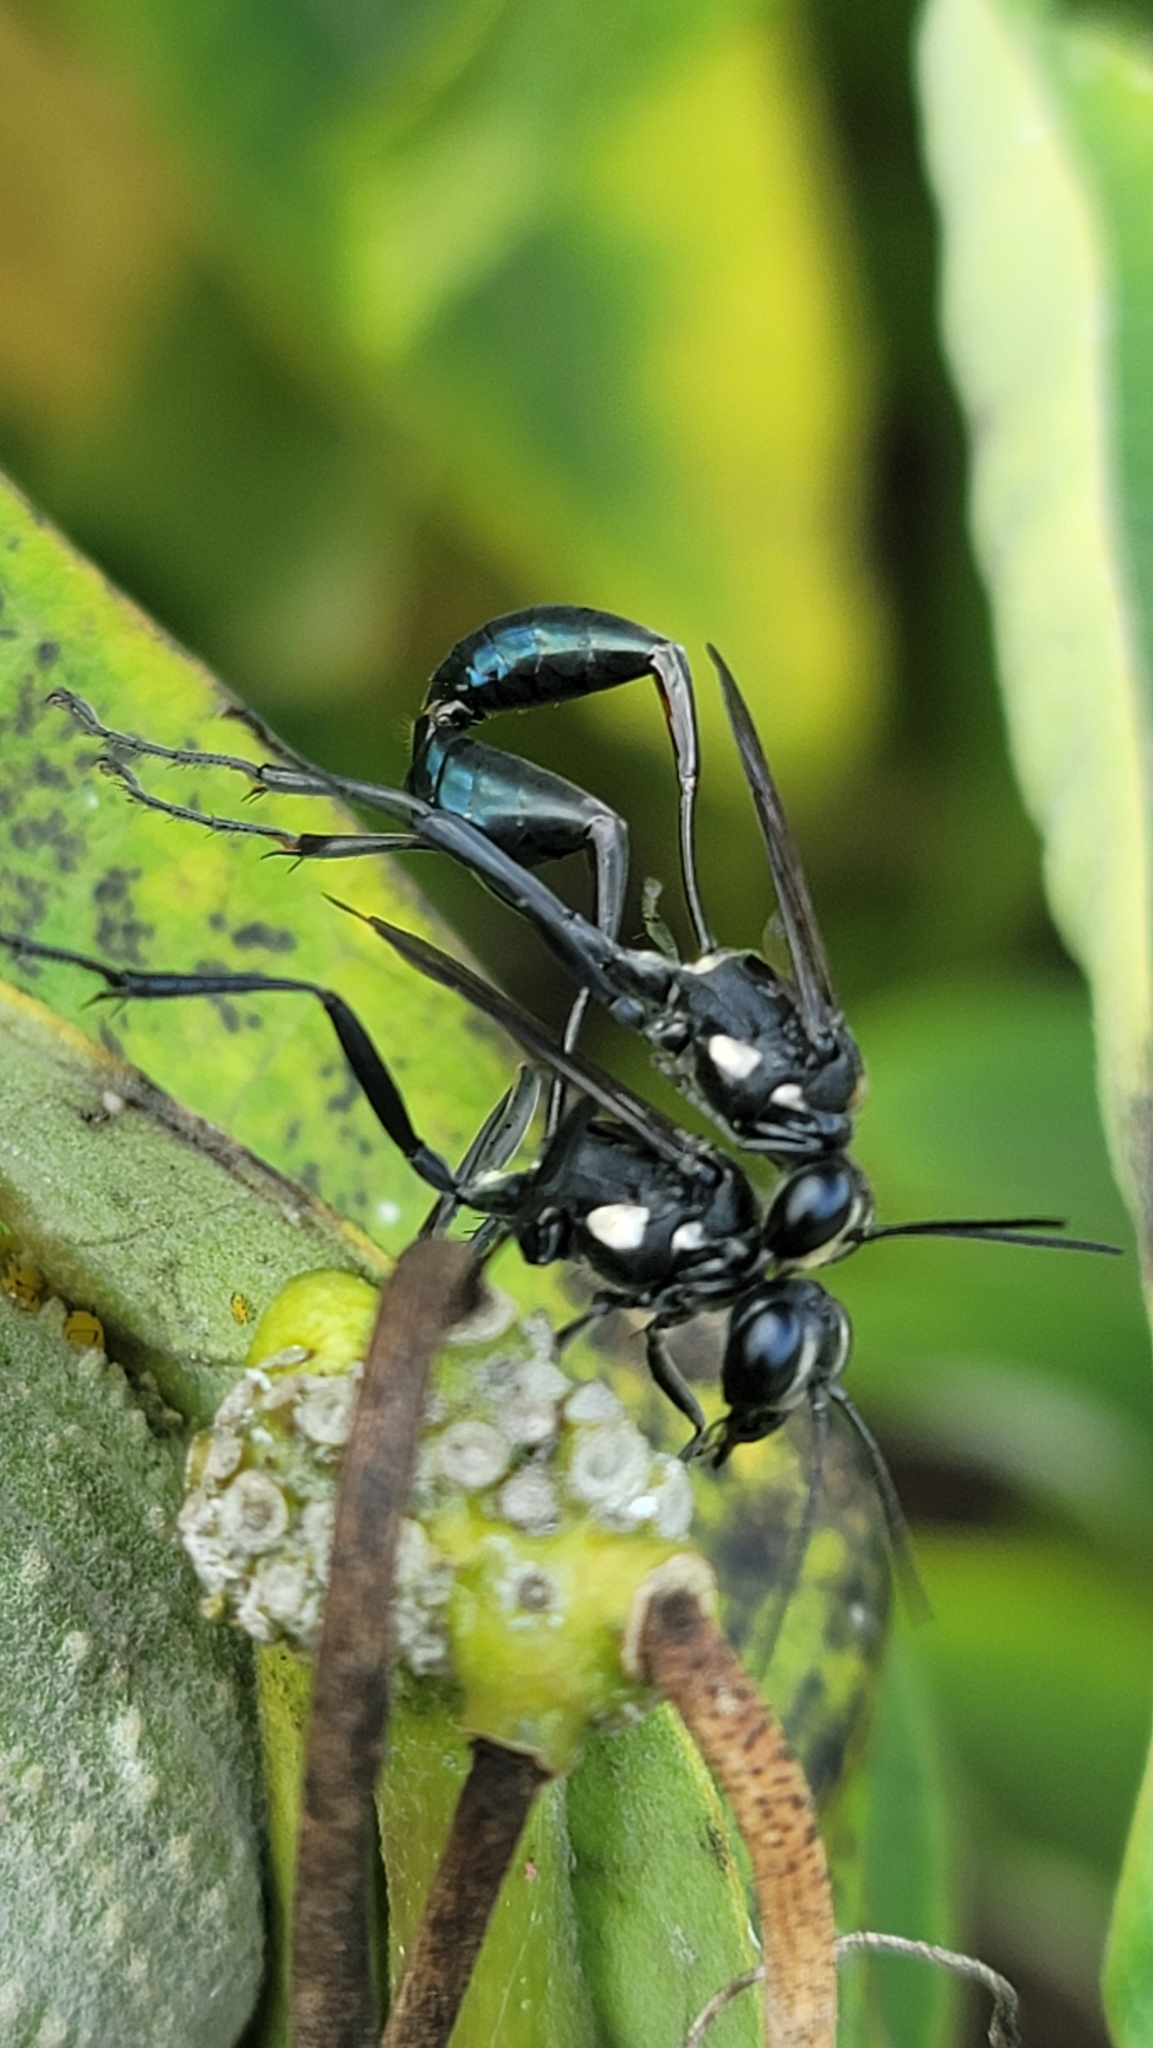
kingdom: Animalia
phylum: Arthropoda
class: Insecta
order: Hymenoptera
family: Sphecidae
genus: Eremnophila
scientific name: Eremnophila aureonotata
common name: Gold-marked thread-waisted wasp
